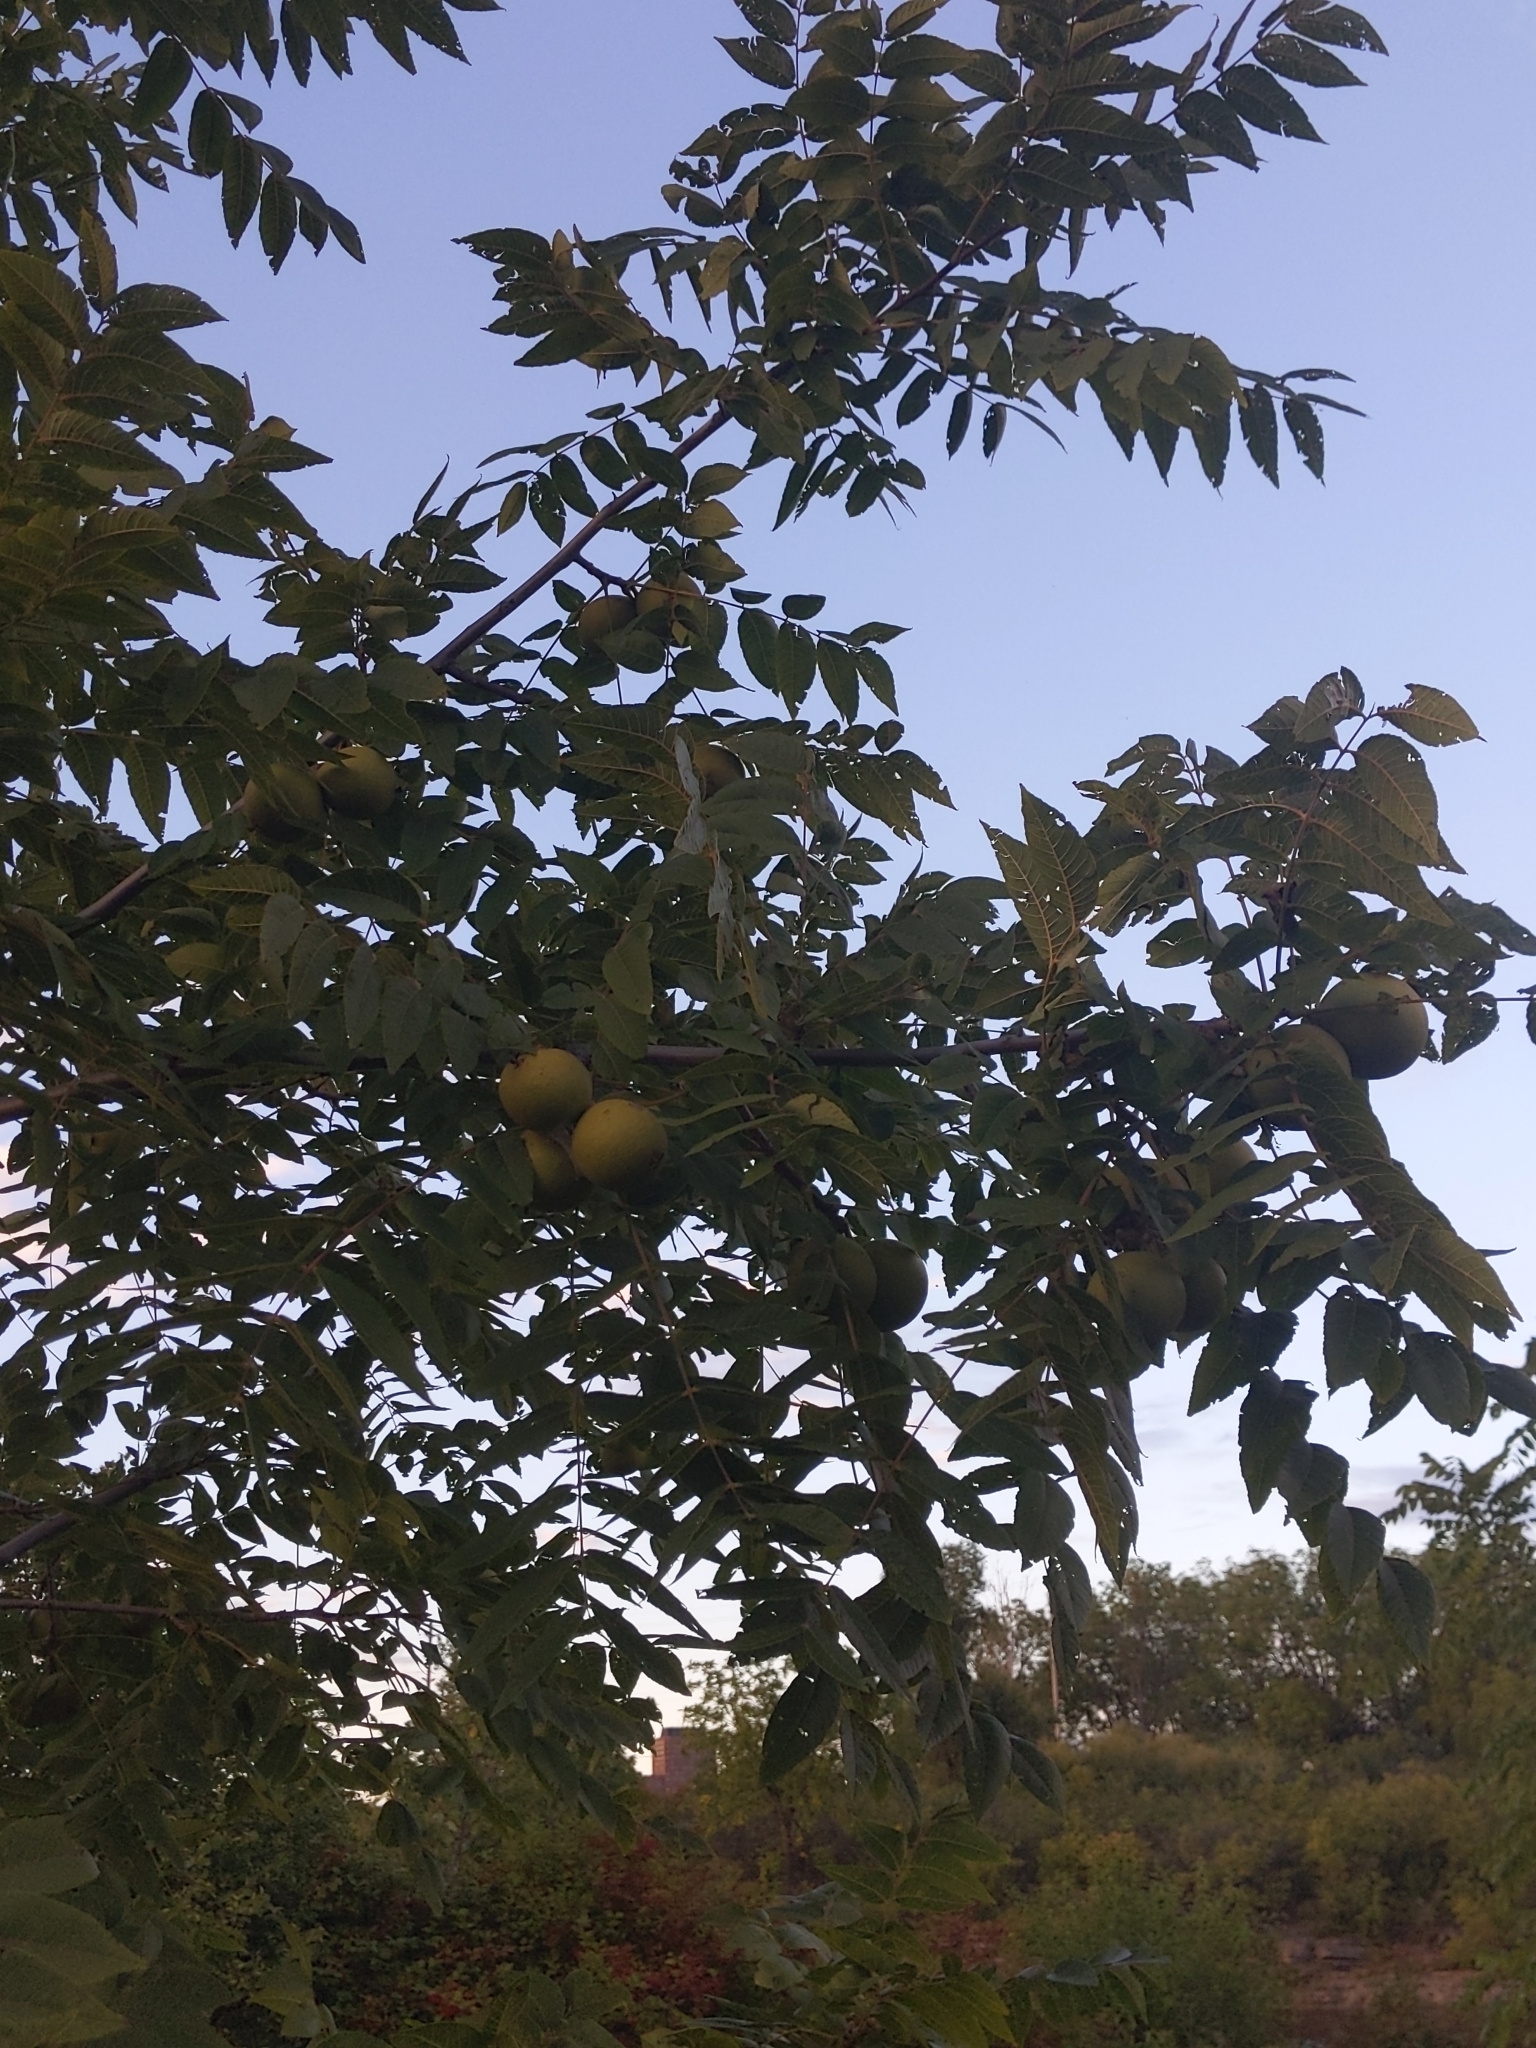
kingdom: Plantae
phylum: Tracheophyta
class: Magnoliopsida
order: Fagales
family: Juglandaceae
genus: Juglans
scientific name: Juglans nigra
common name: Black walnut
